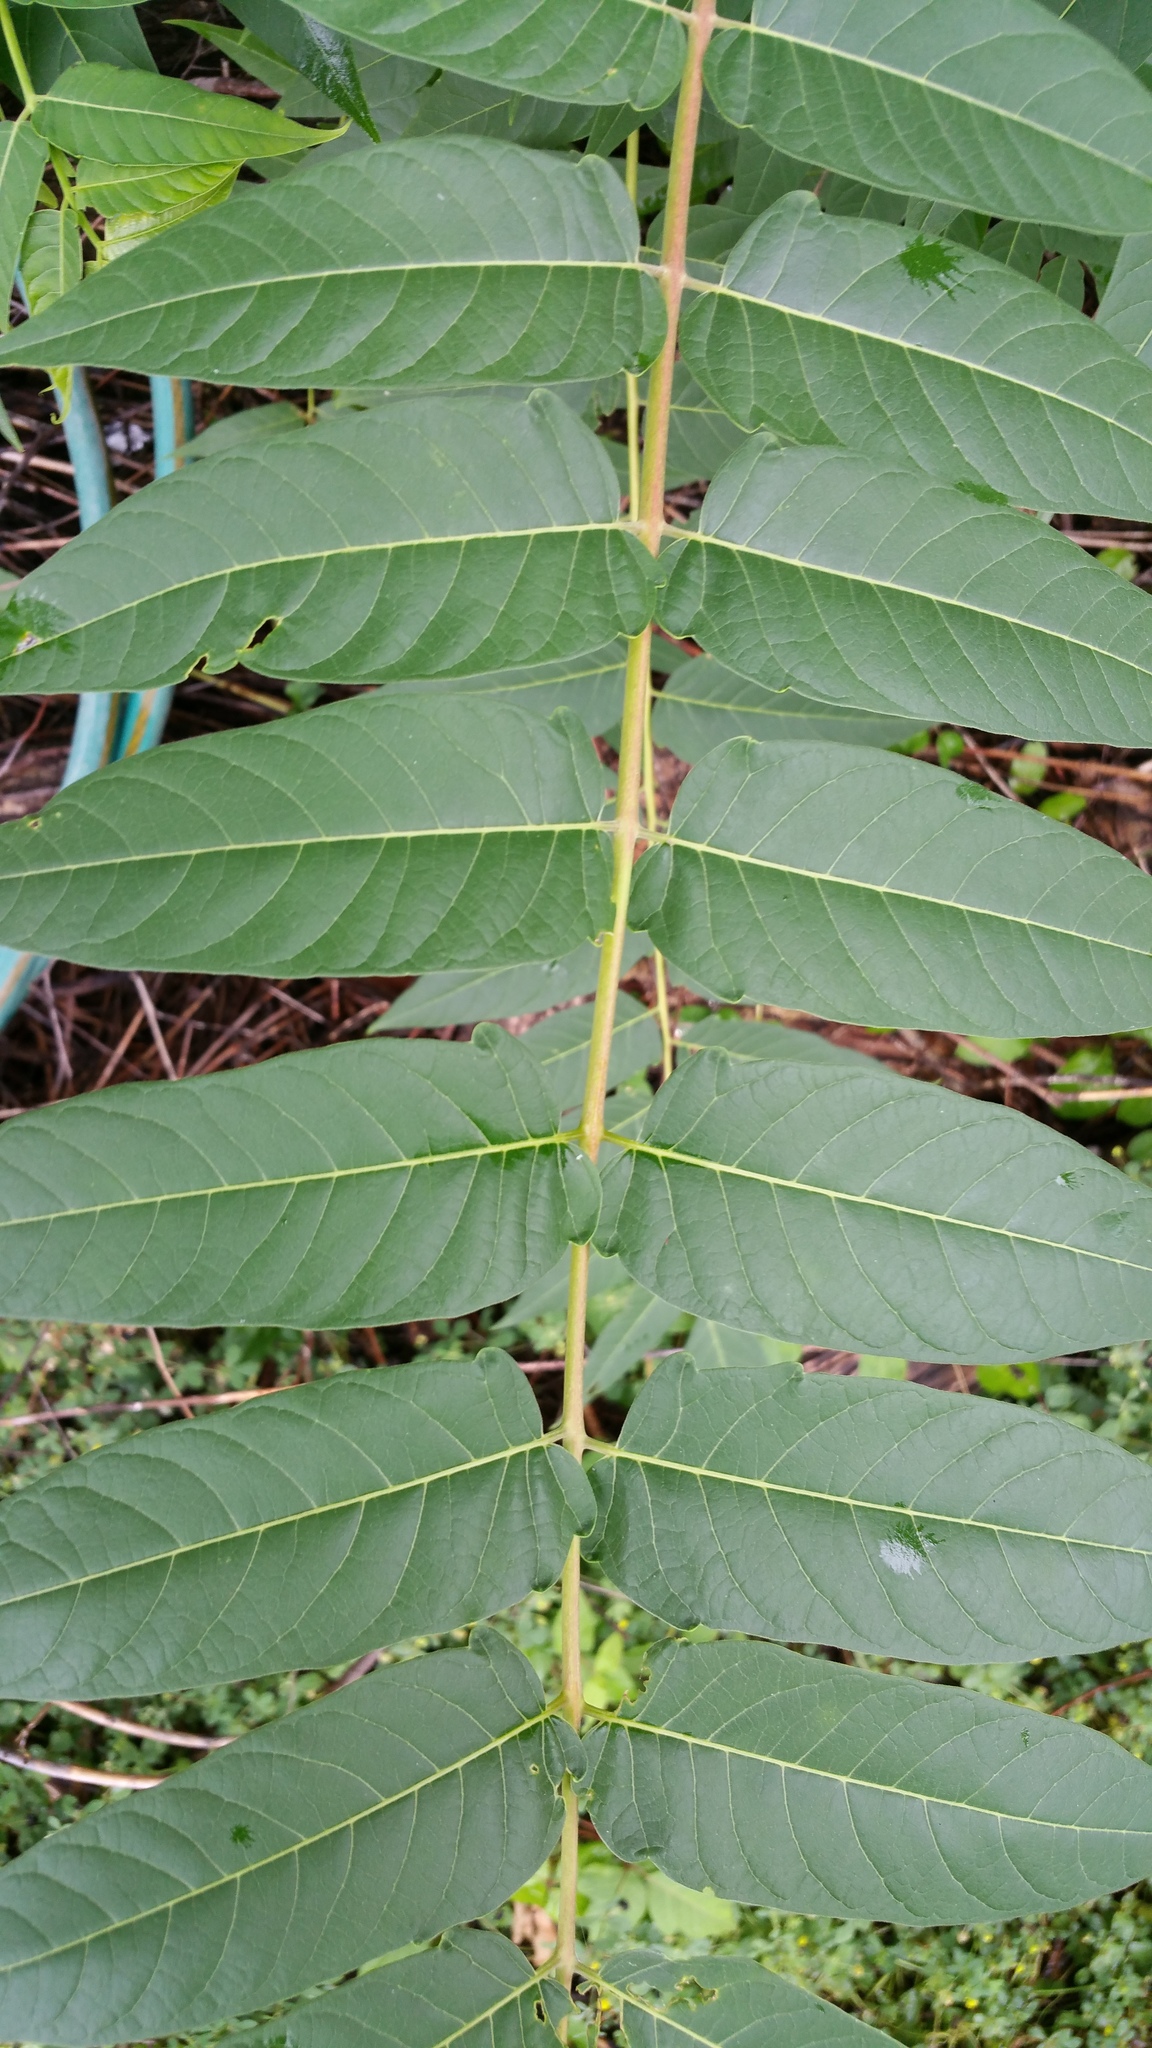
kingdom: Plantae
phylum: Tracheophyta
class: Magnoliopsida
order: Sapindales
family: Simaroubaceae
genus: Ailanthus
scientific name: Ailanthus altissima
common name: Tree-of-heaven
